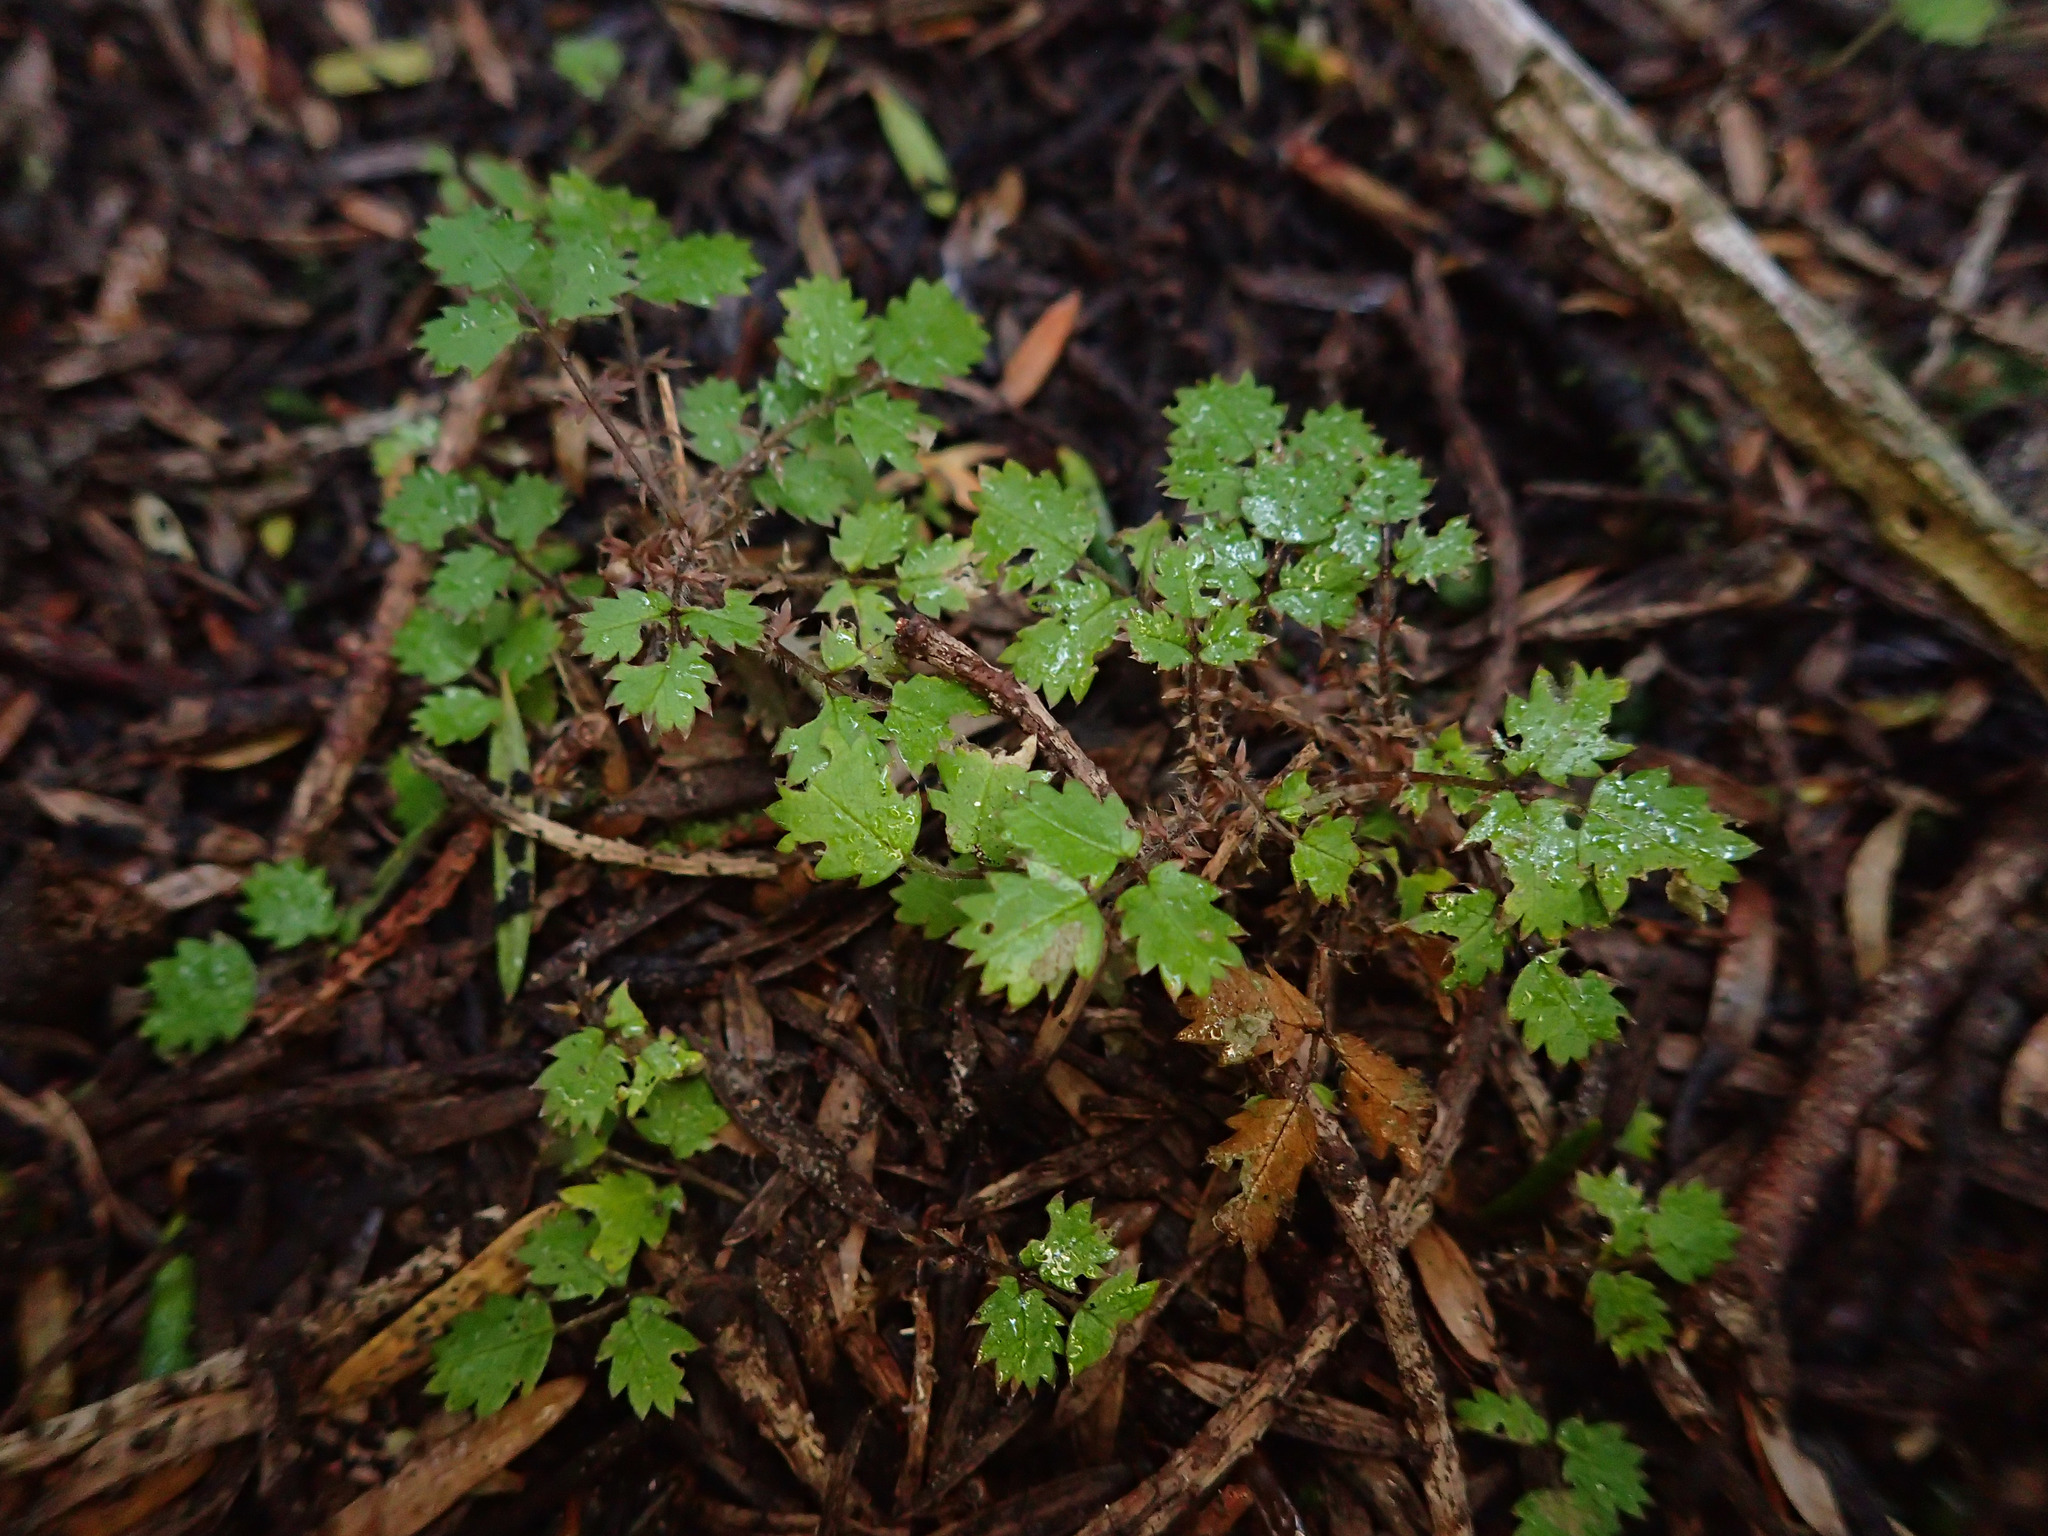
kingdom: Plantae
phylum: Tracheophyta
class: Magnoliopsida
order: Rosales
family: Rosaceae
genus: Acaena
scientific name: Acaena juvenca
